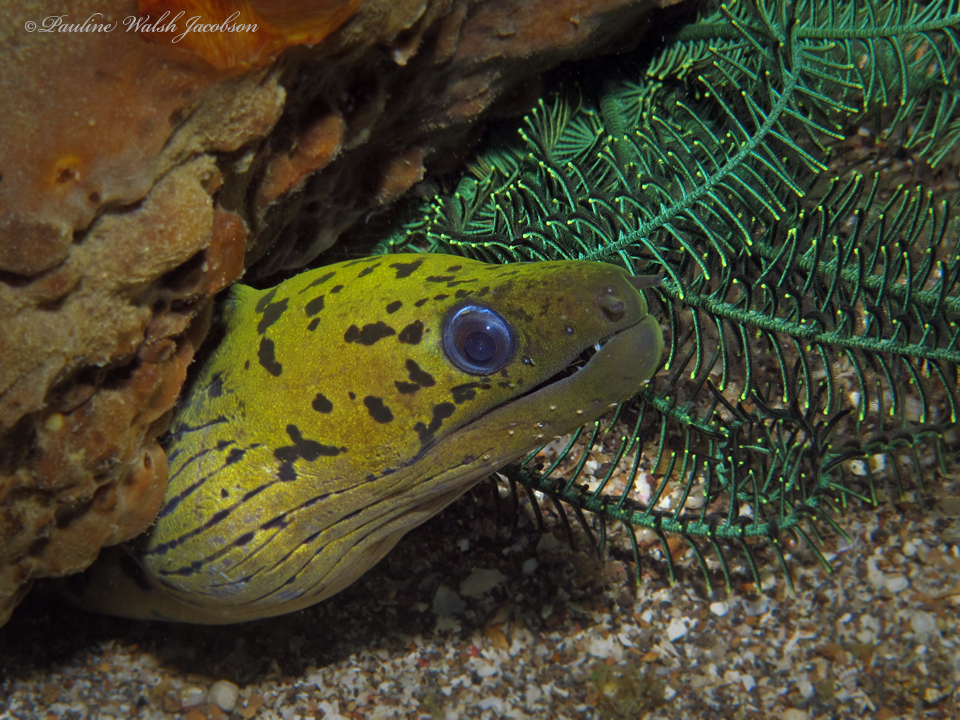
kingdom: Animalia
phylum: Chordata
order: Anguilliformes
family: Muraenidae
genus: Gymnothorax
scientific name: Gymnothorax fimbriatus
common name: Darkspotted moray
